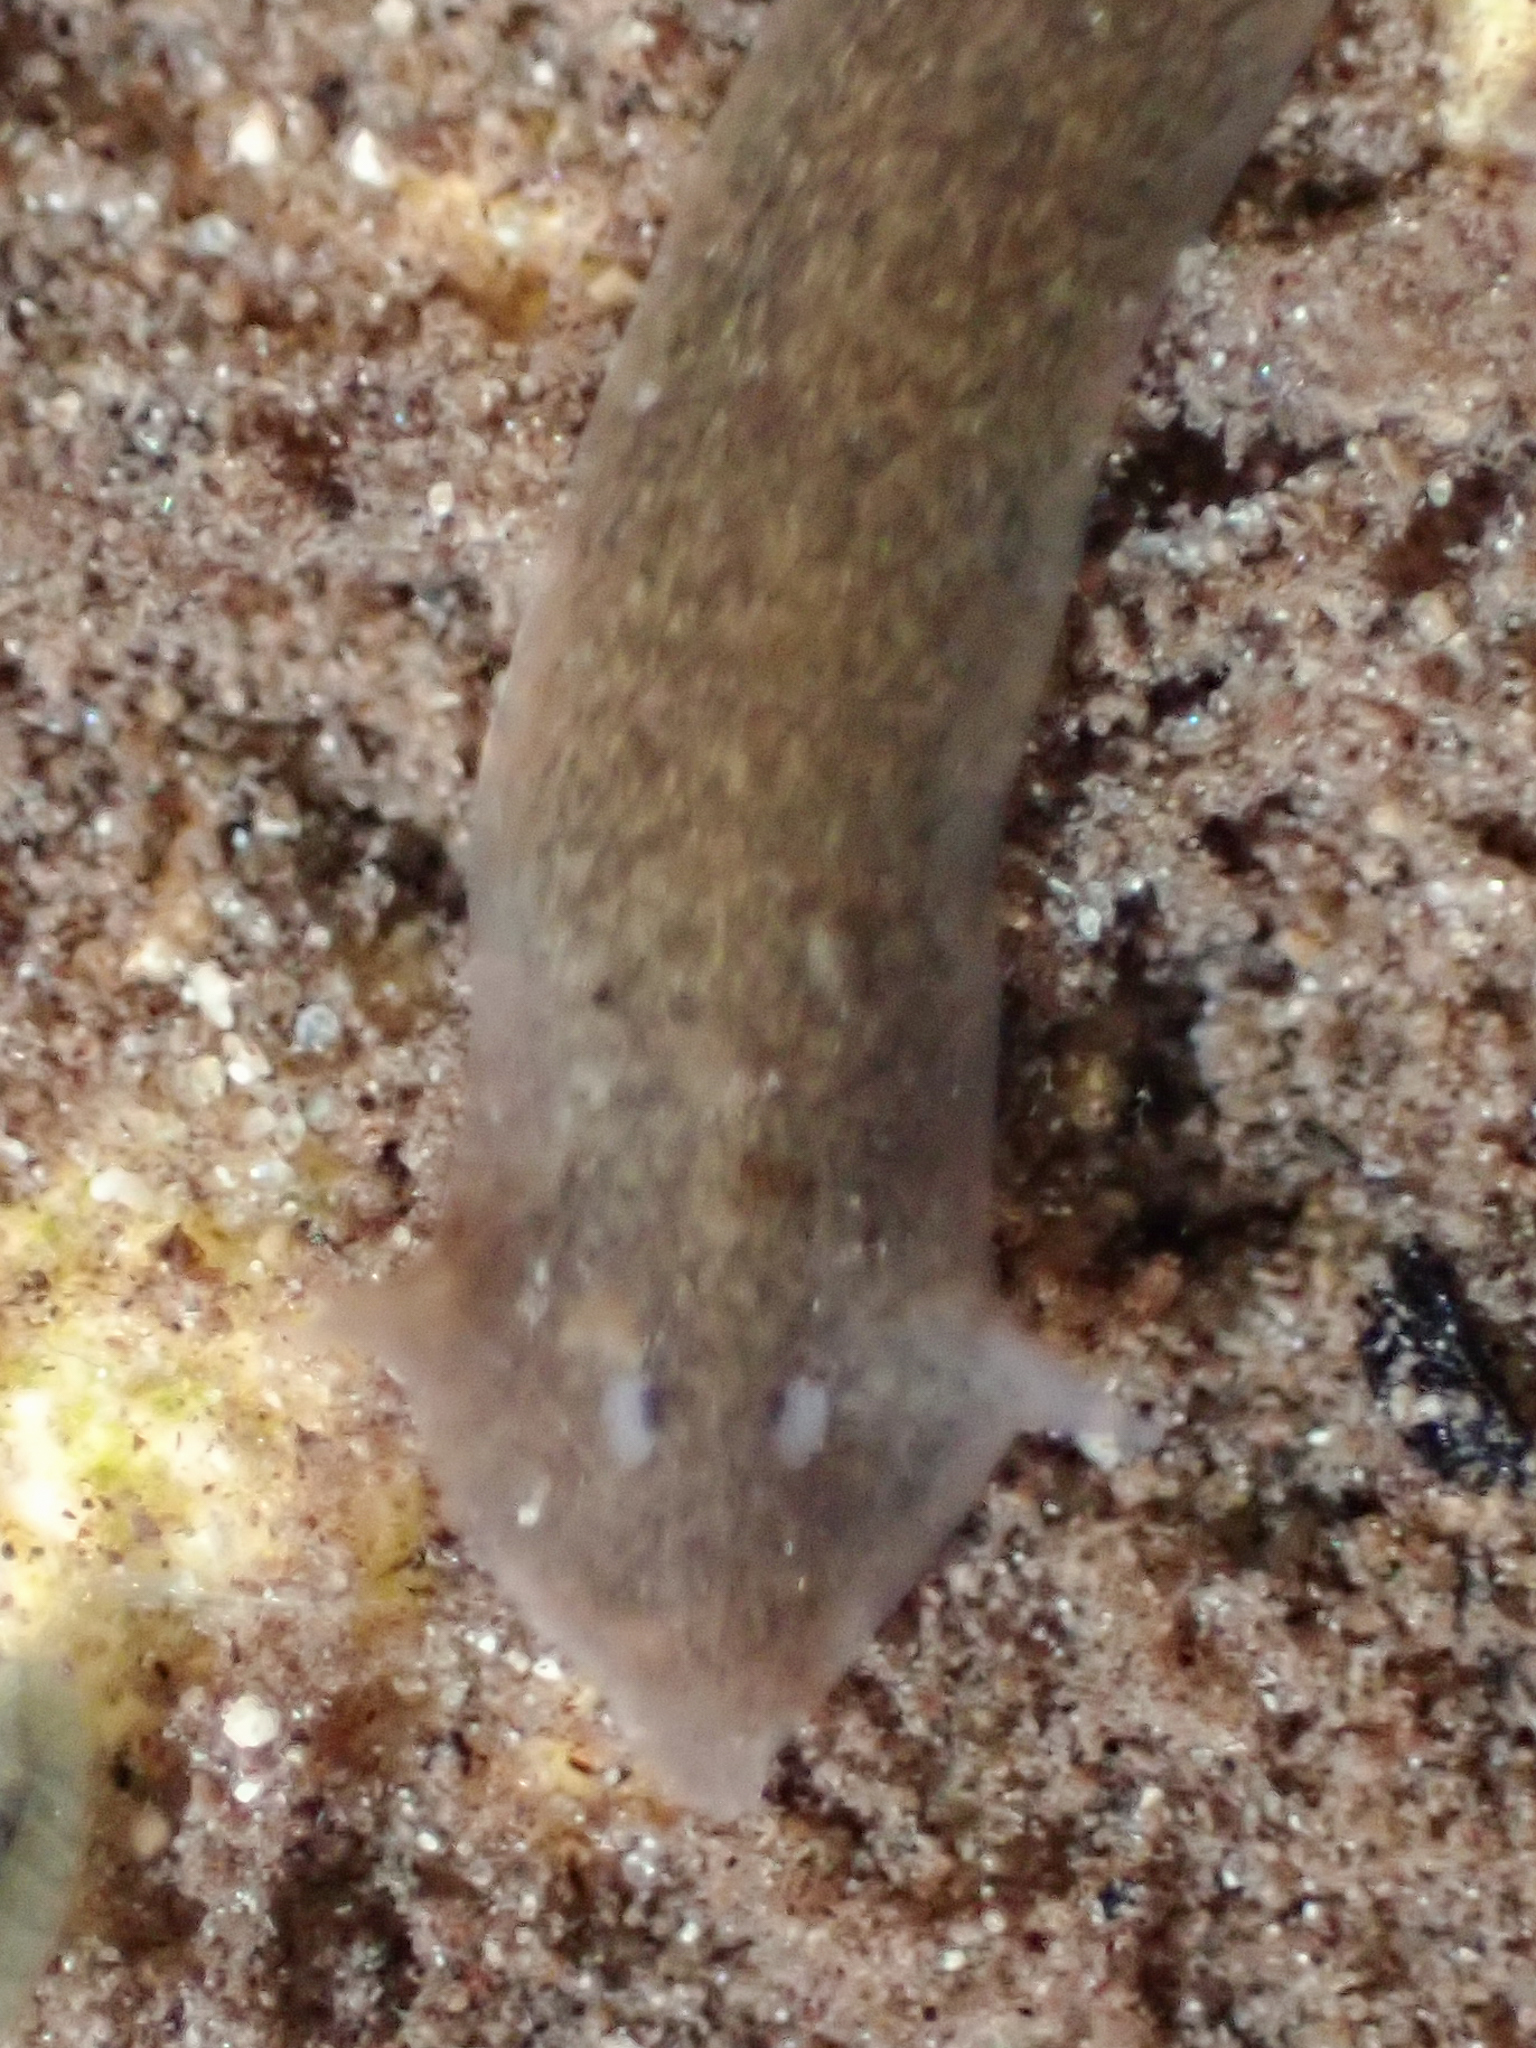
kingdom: Animalia
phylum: Platyhelminthes
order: Tricladida
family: Dugesiidae
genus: Girardia
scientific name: Girardia dorotocephala
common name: Flatworm
